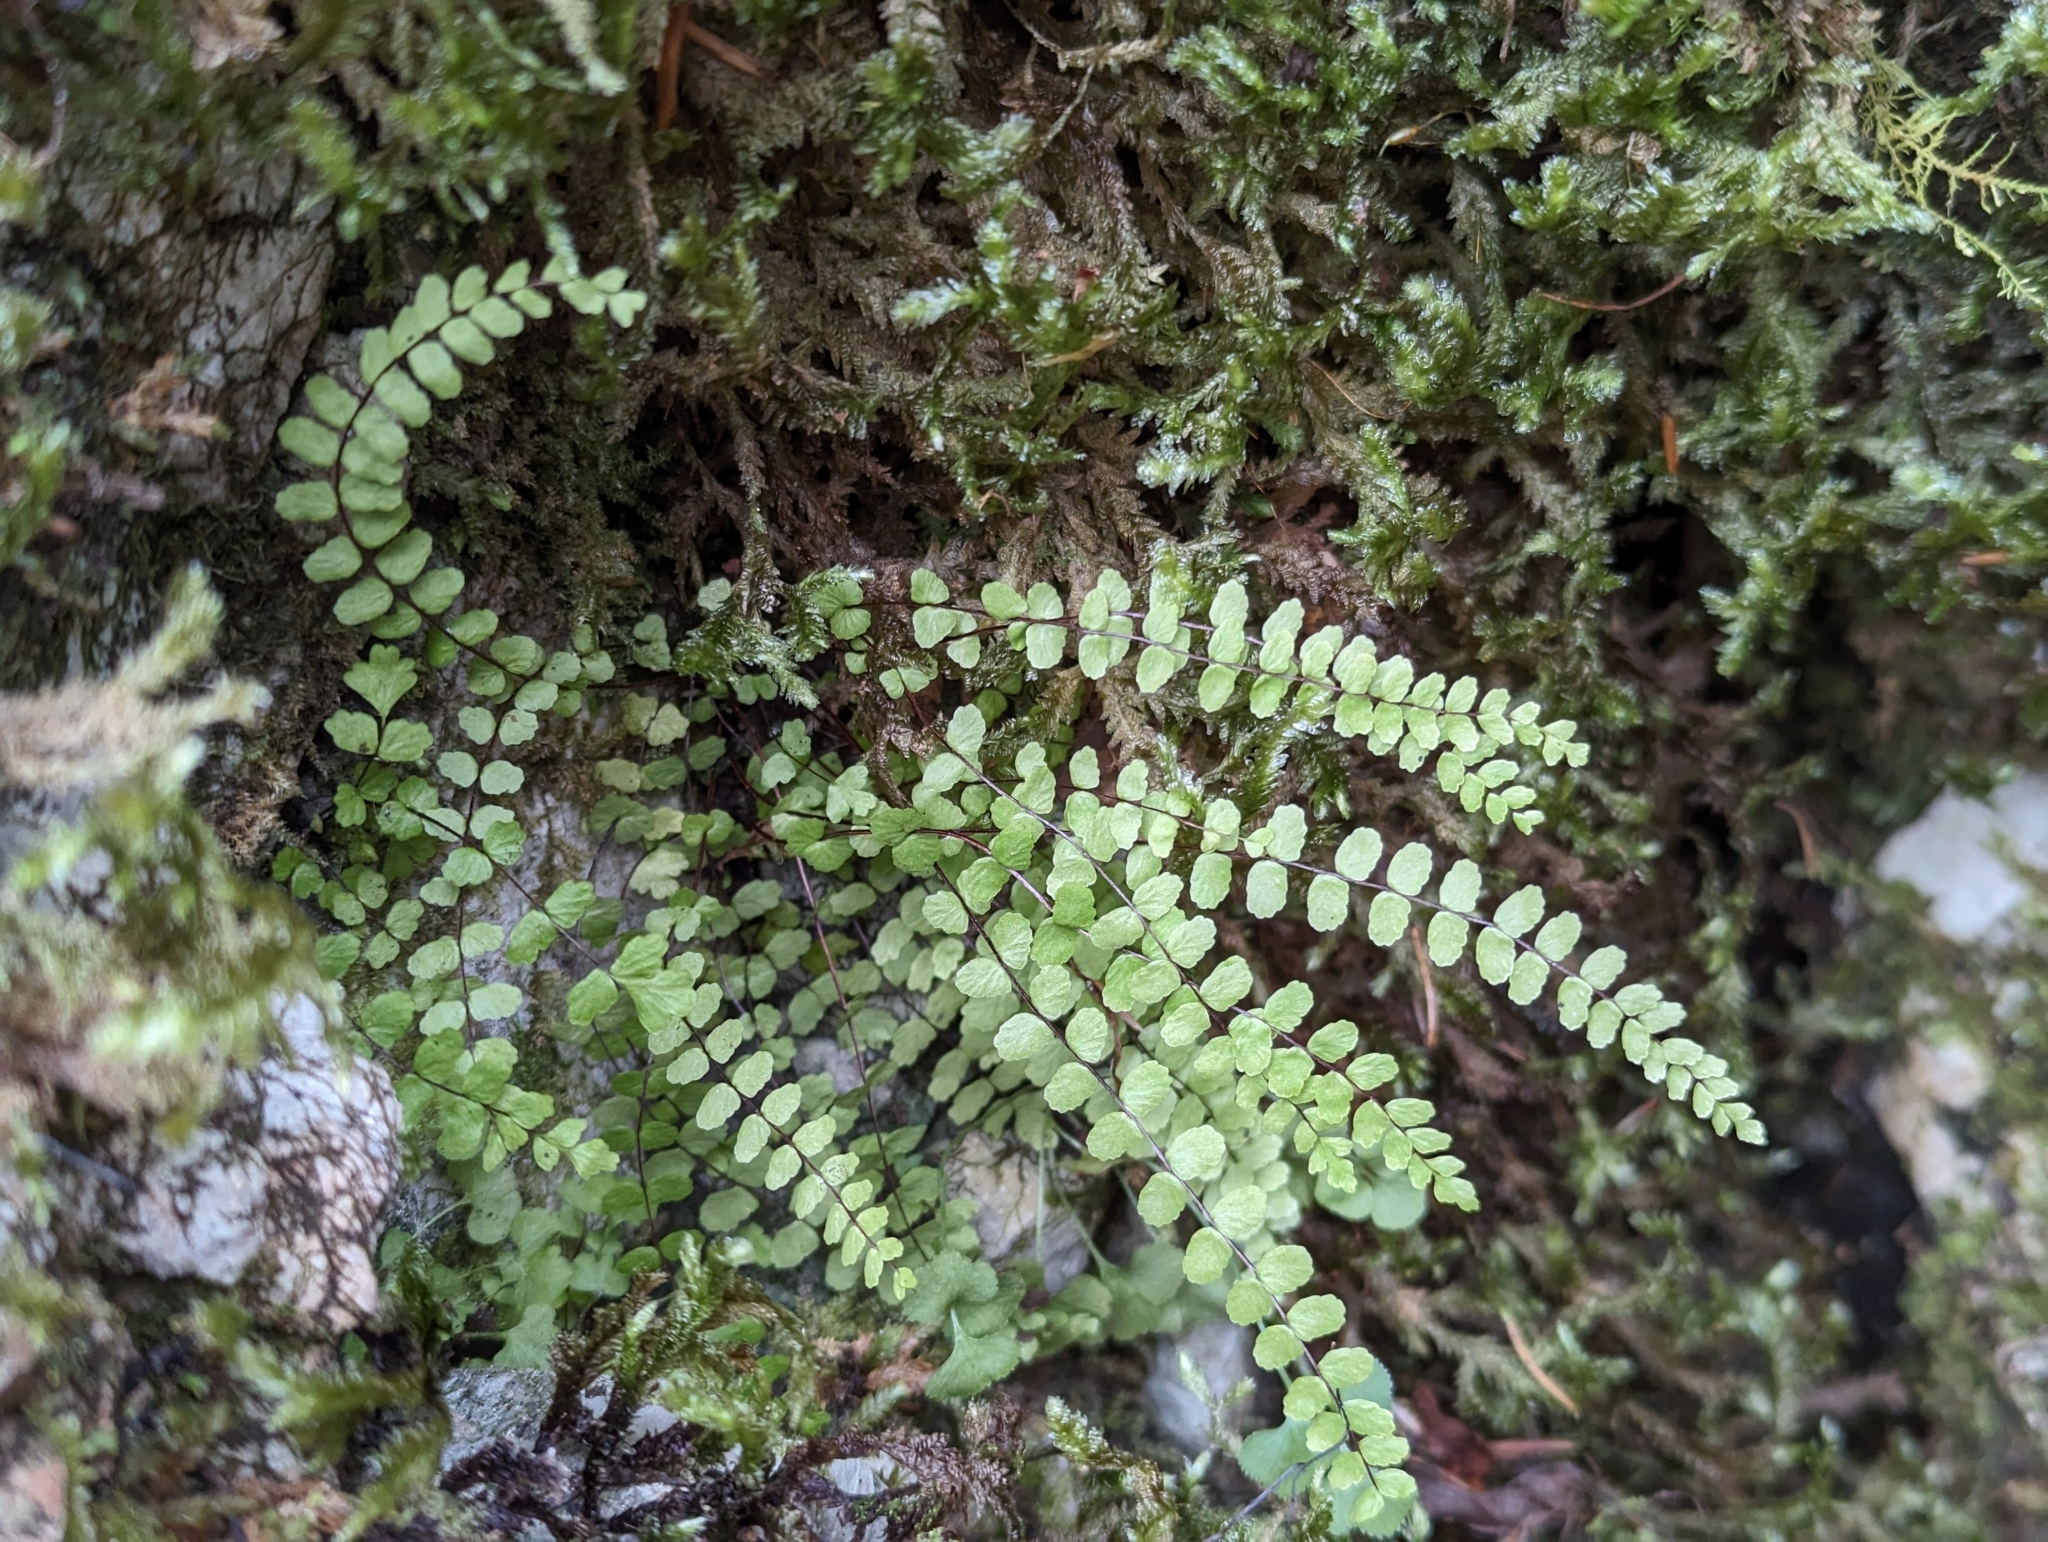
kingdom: Plantae
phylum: Tracheophyta
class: Polypodiopsida
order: Polypodiales
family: Aspleniaceae
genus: Asplenium
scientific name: Asplenium trichomanes
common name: Maidenhair spleenwort
